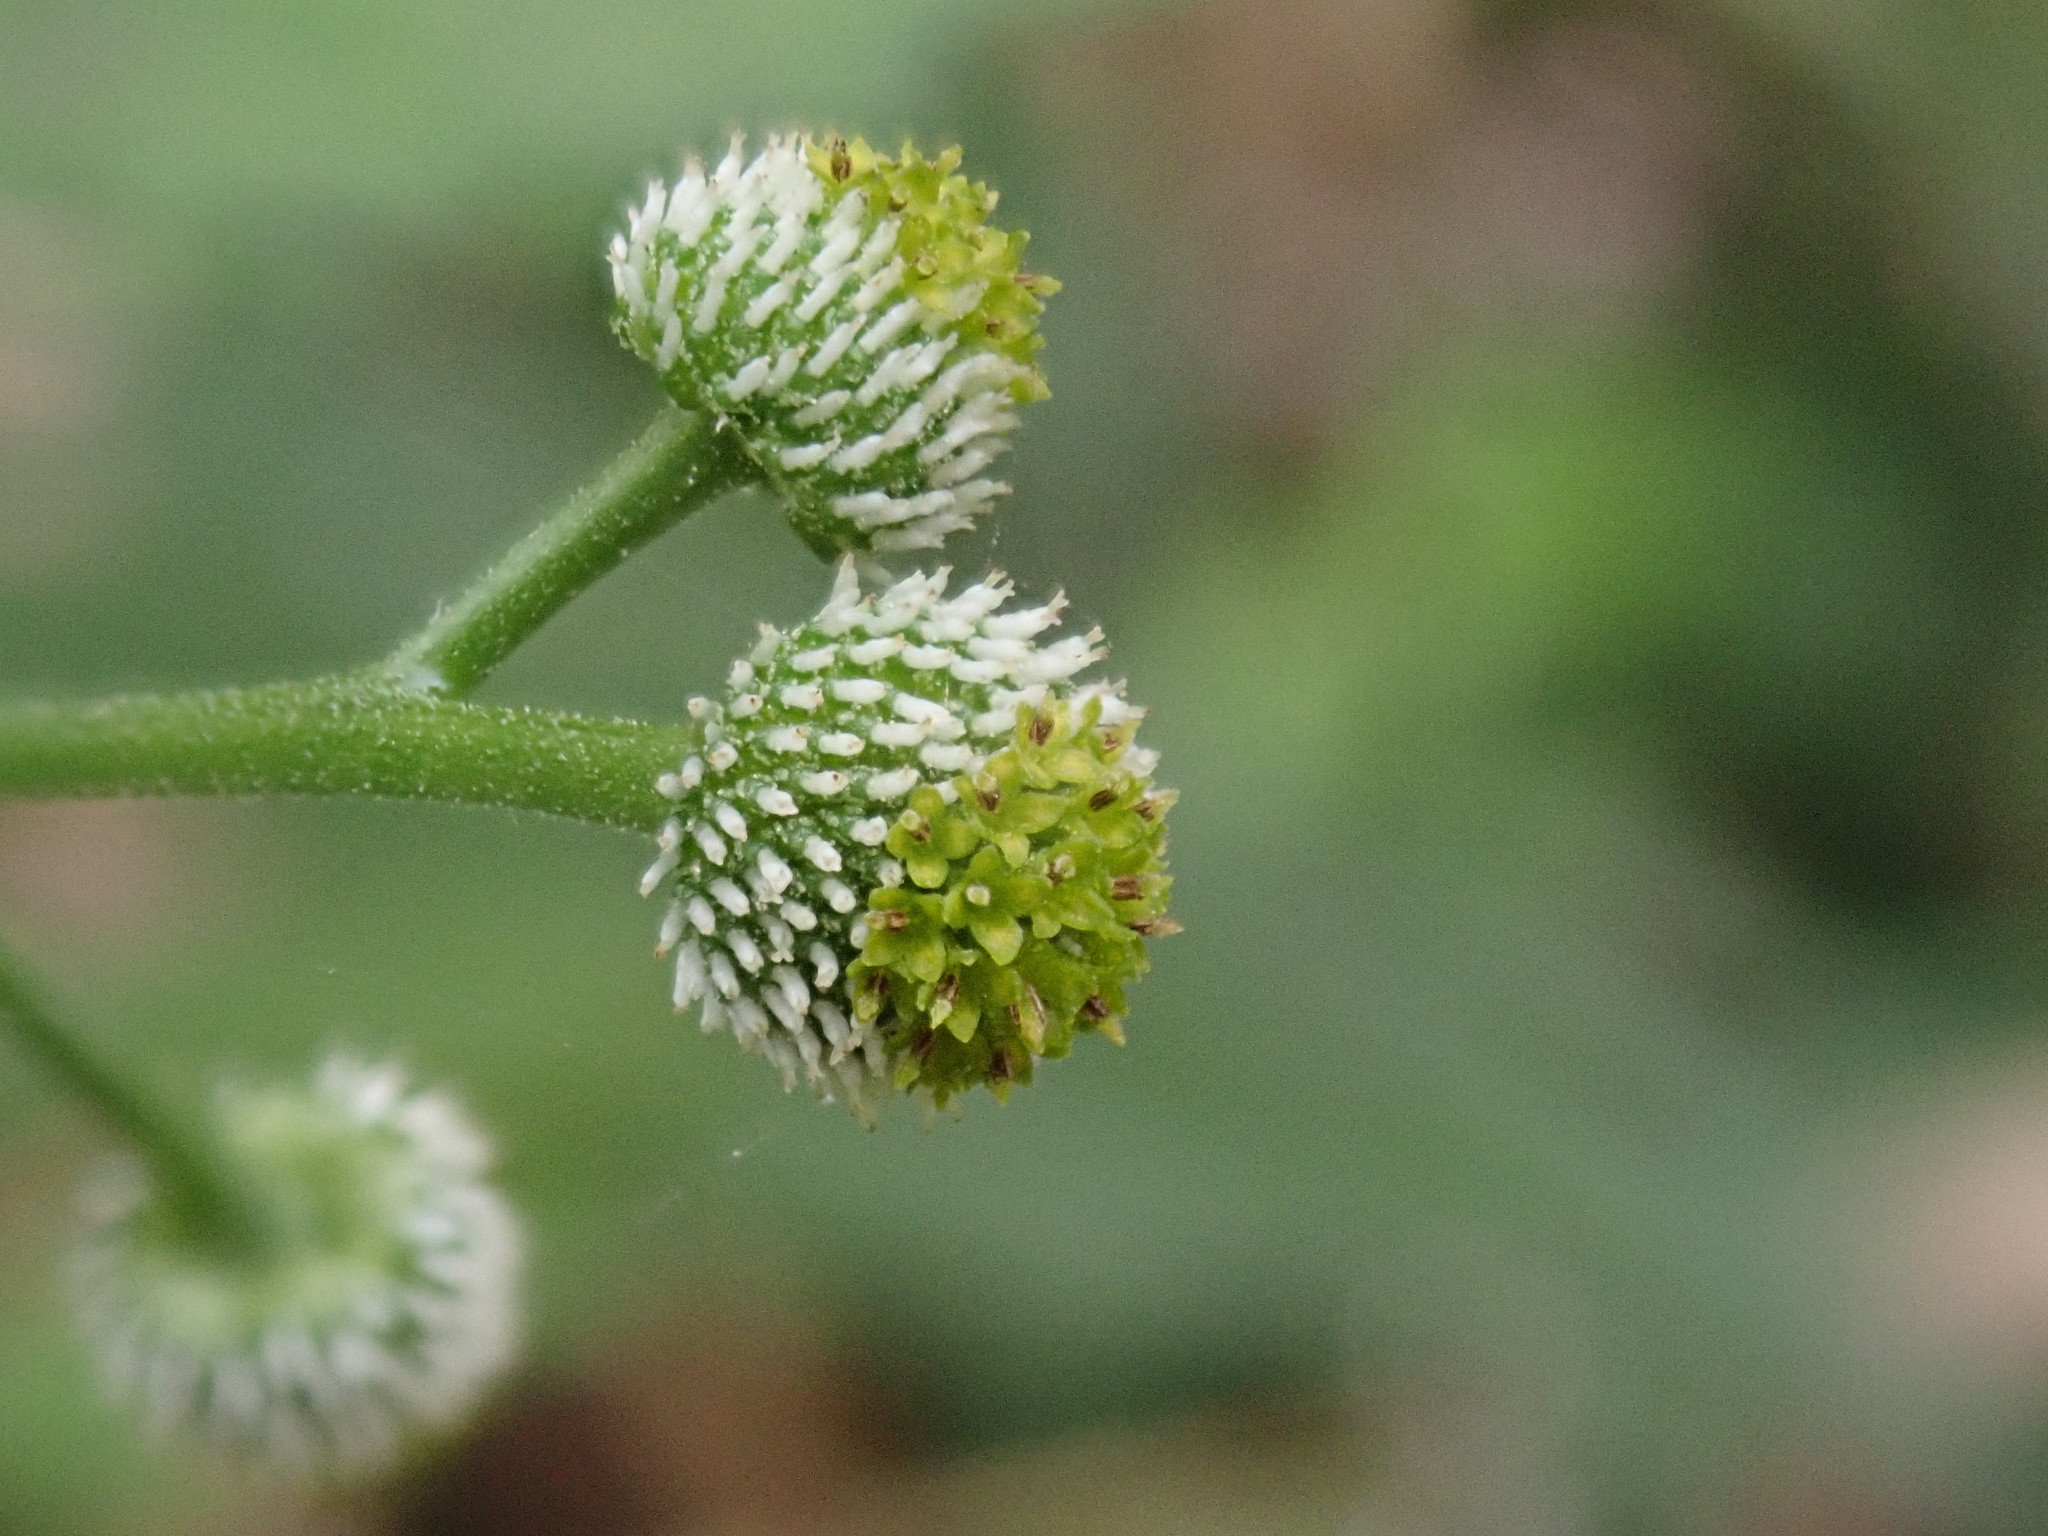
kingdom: Plantae
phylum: Tracheophyta
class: Magnoliopsida
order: Asterales
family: Asteraceae
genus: Dichrocephala
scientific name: Dichrocephala integrifolia
